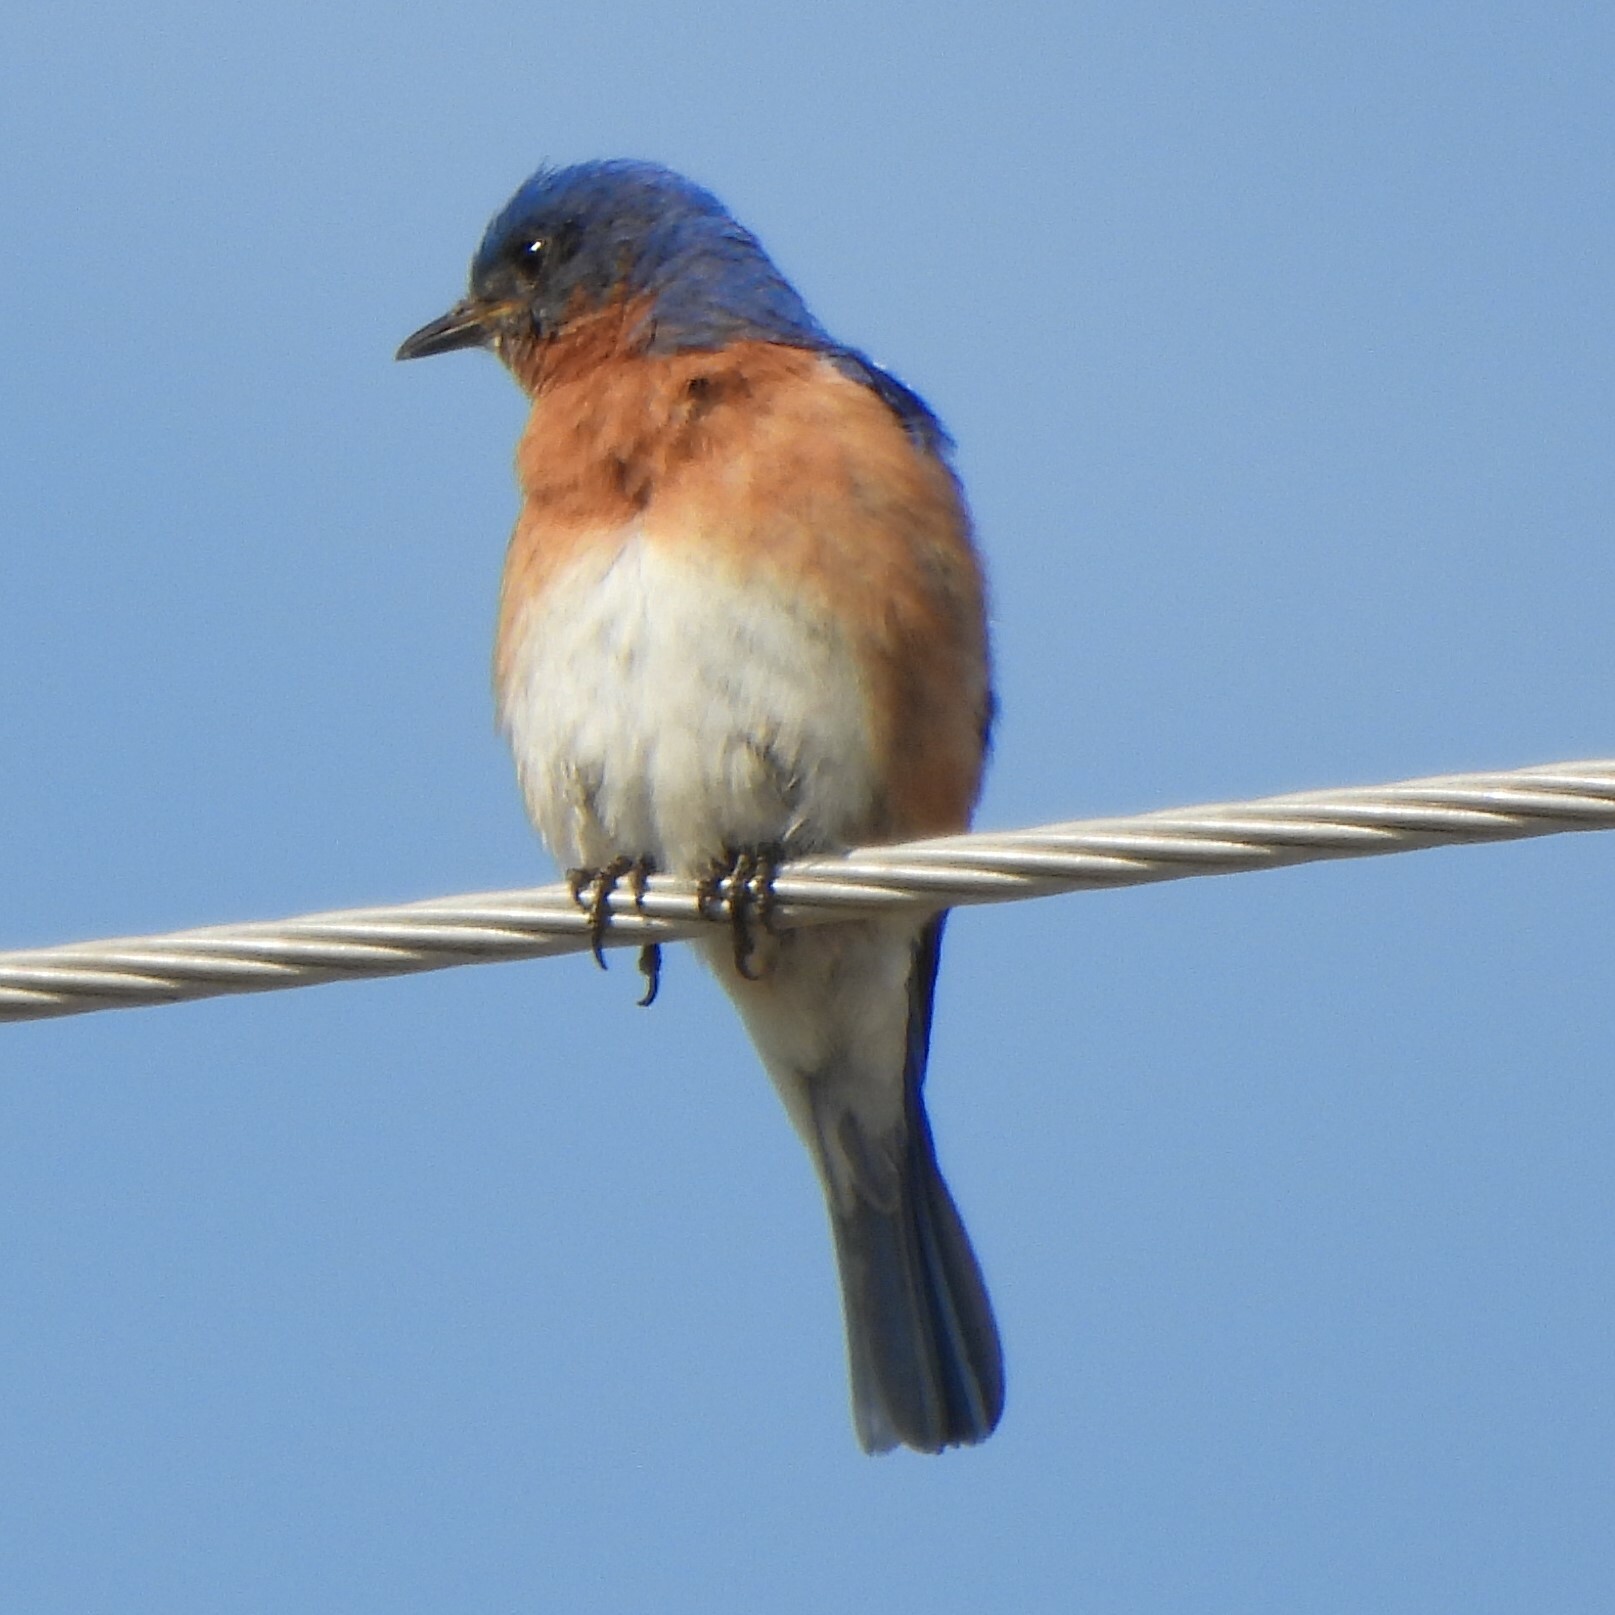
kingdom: Animalia
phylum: Chordata
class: Aves
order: Passeriformes
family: Turdidae
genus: Sialia
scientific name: Sialia sialis
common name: Eastern bluebird
